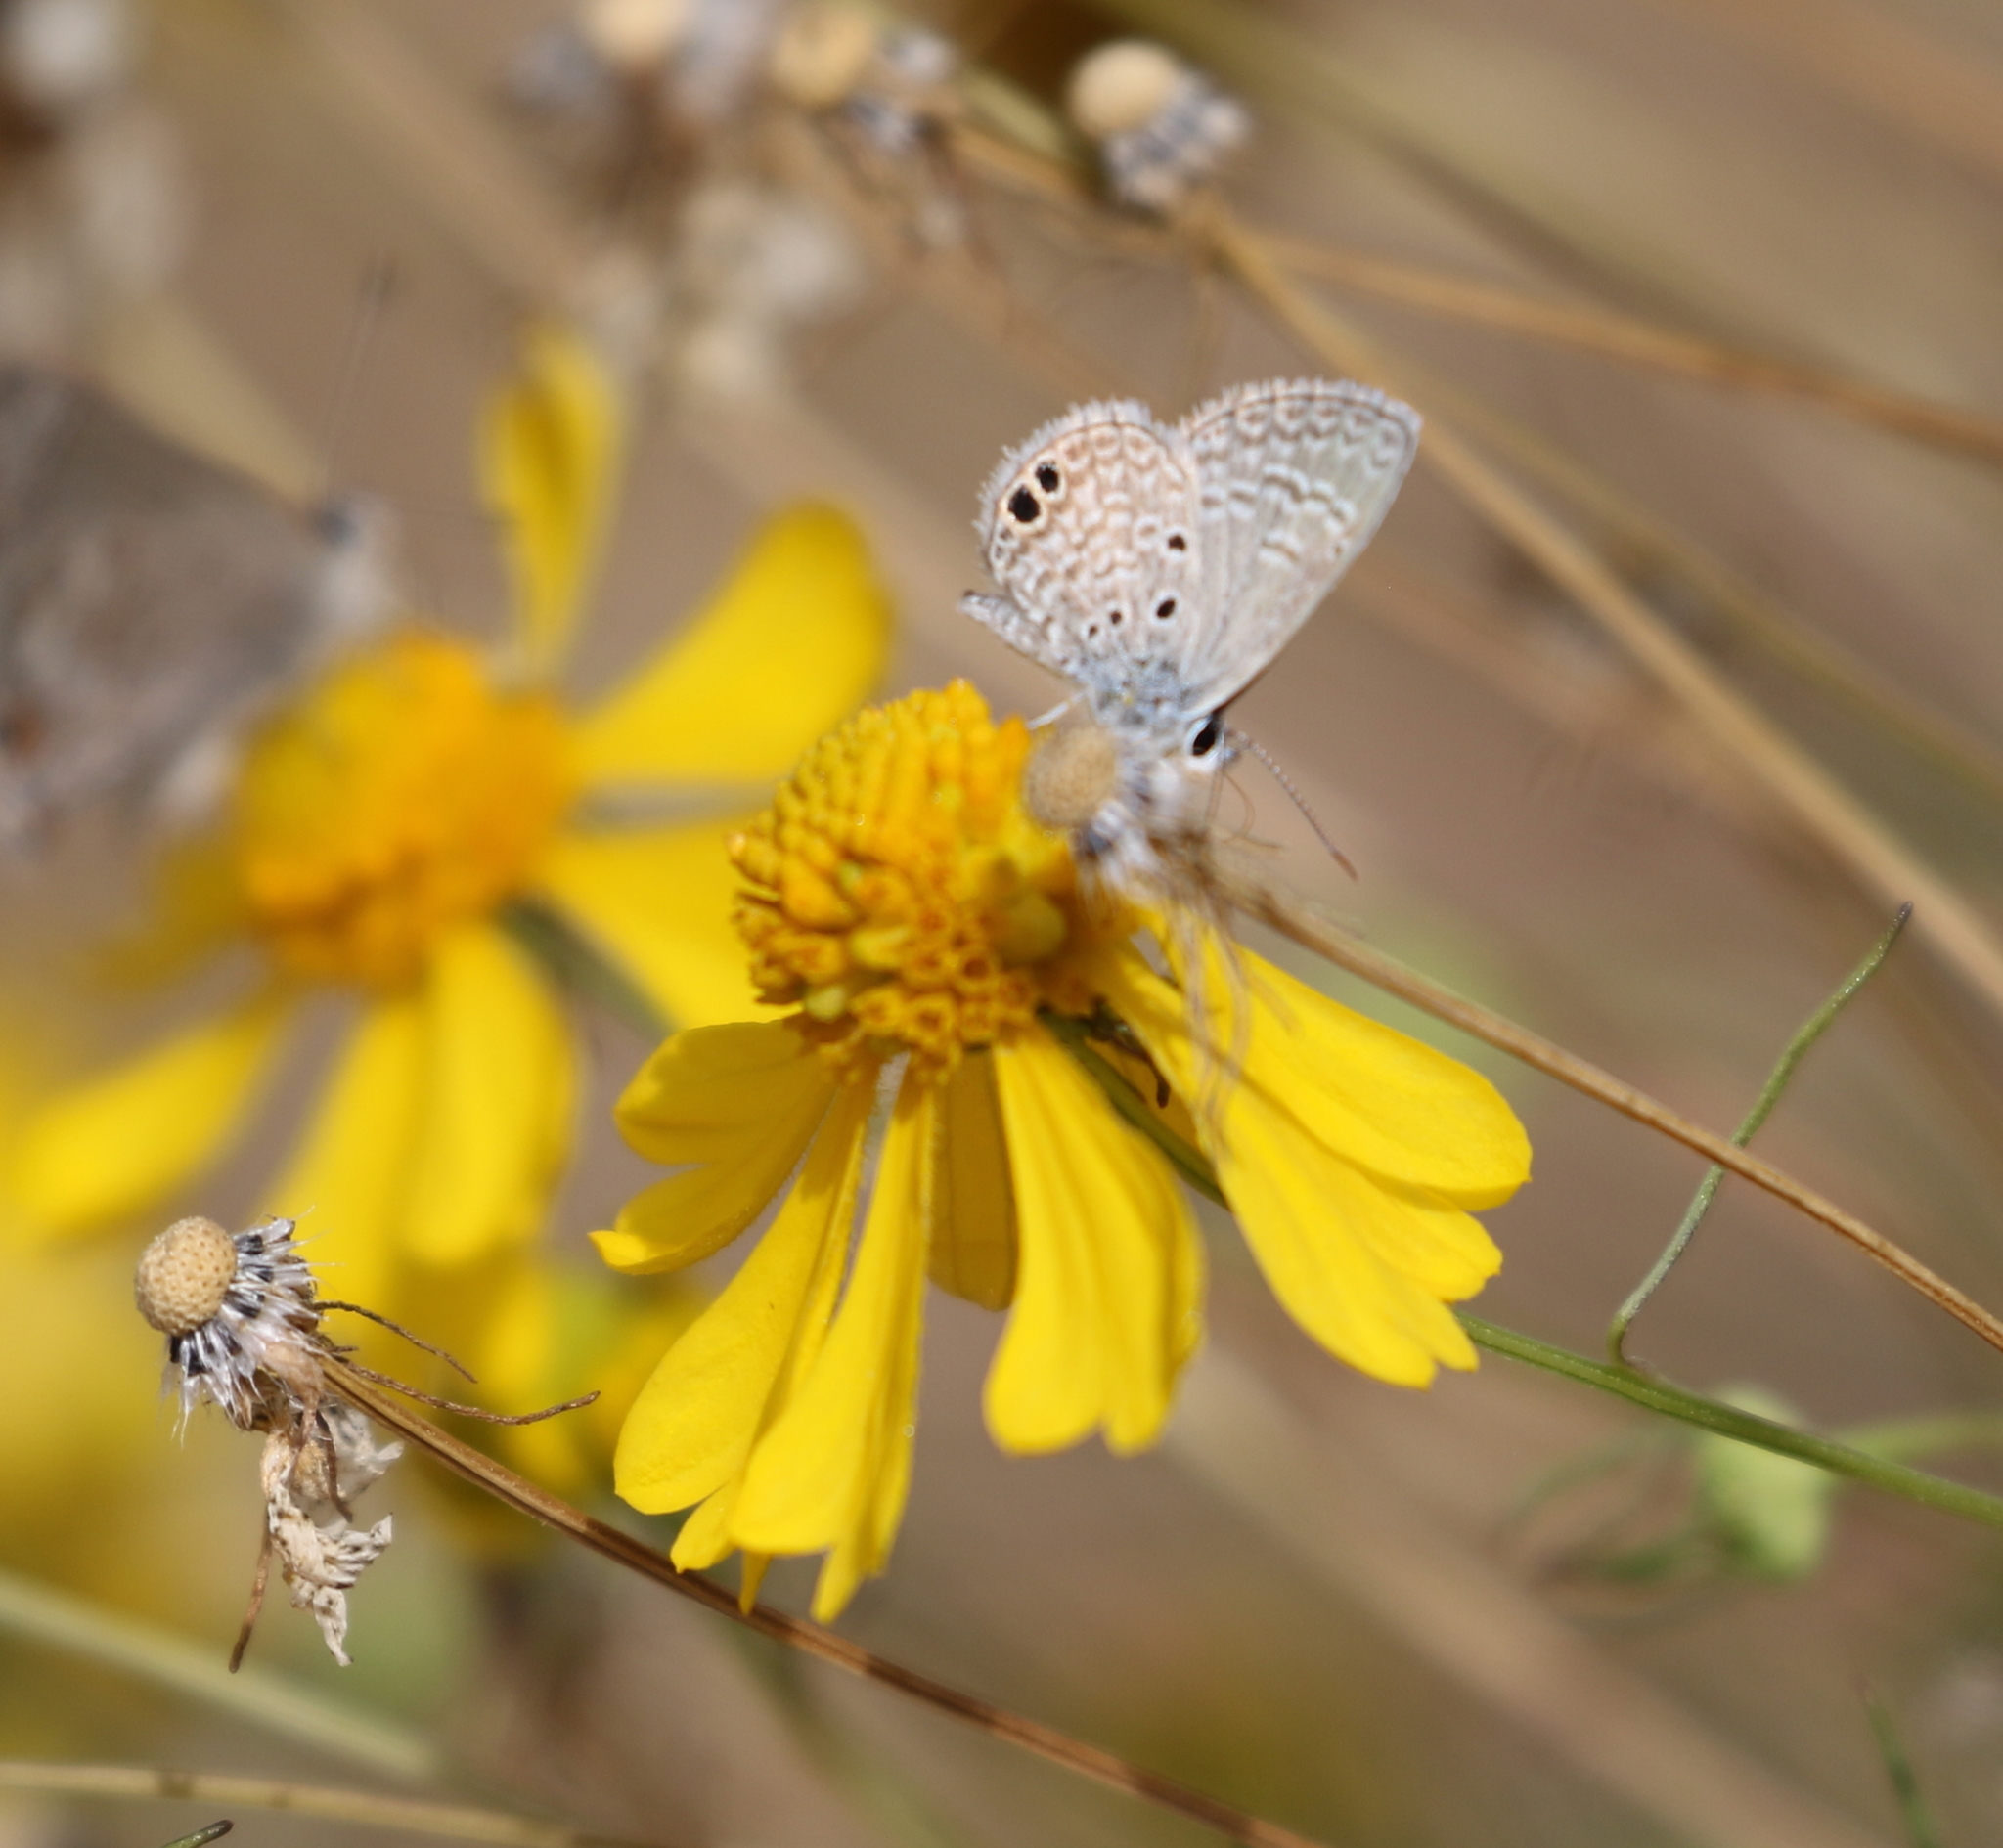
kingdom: Animalia
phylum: Arthropoda
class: Insecta
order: Lepidoptera
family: Lycaenidae
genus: Hemiargus
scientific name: Hemiargus ceraunus
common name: Ceraunus blue
